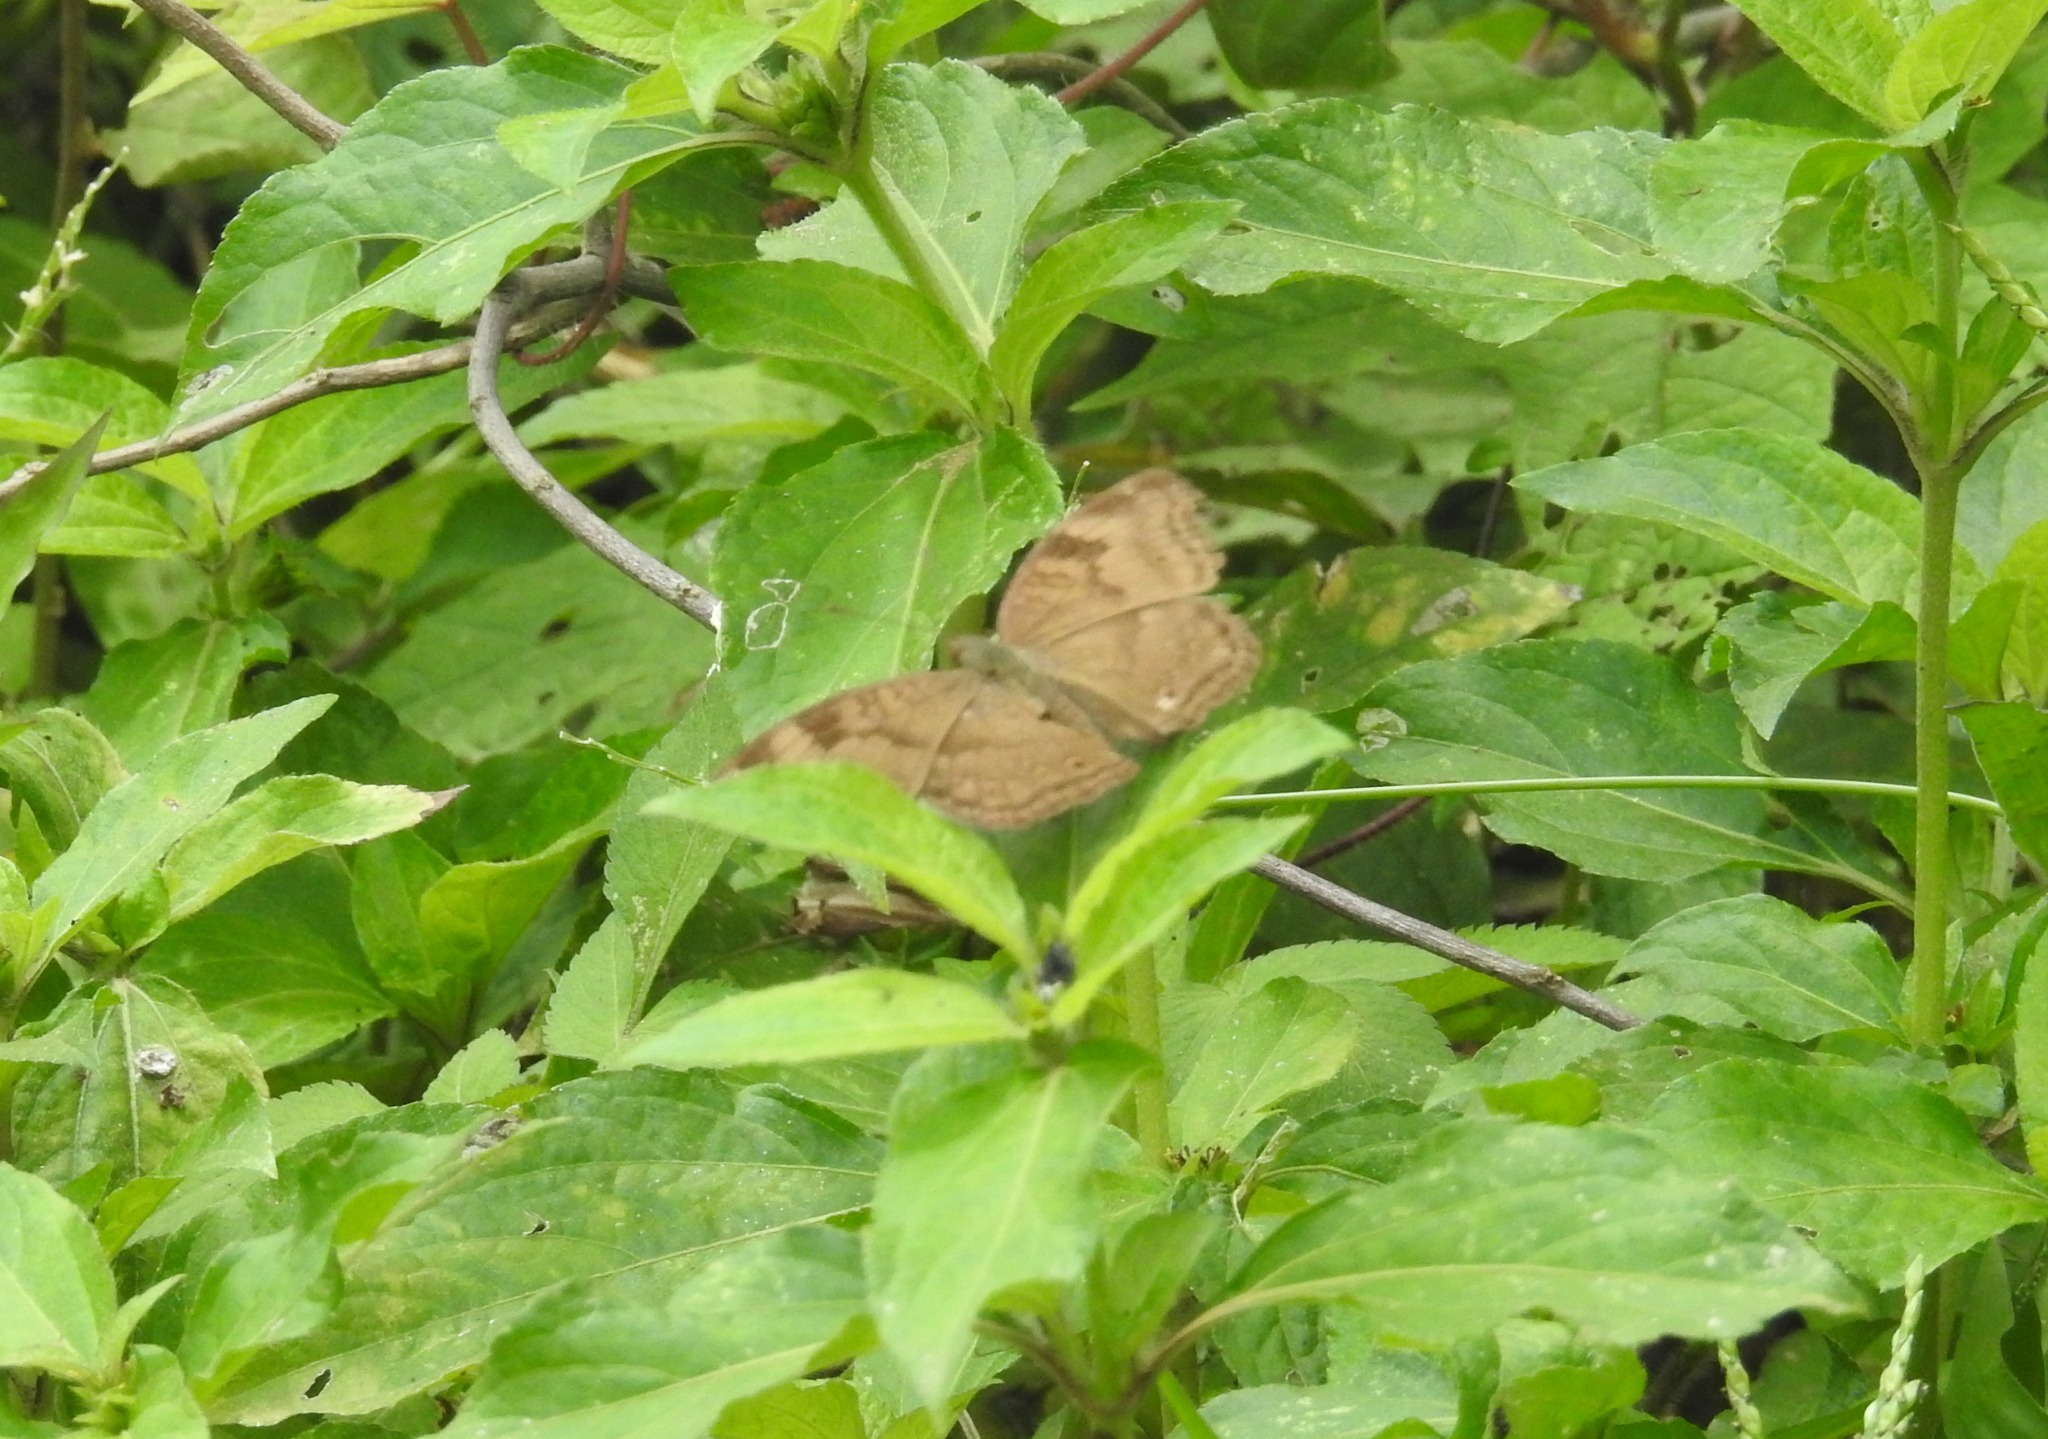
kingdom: Animalia
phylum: Arthropoda
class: Insecta
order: Lepidoptera
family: Nymphalidae
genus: Junonia
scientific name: Junonia iphita
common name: Chocolate pansy
